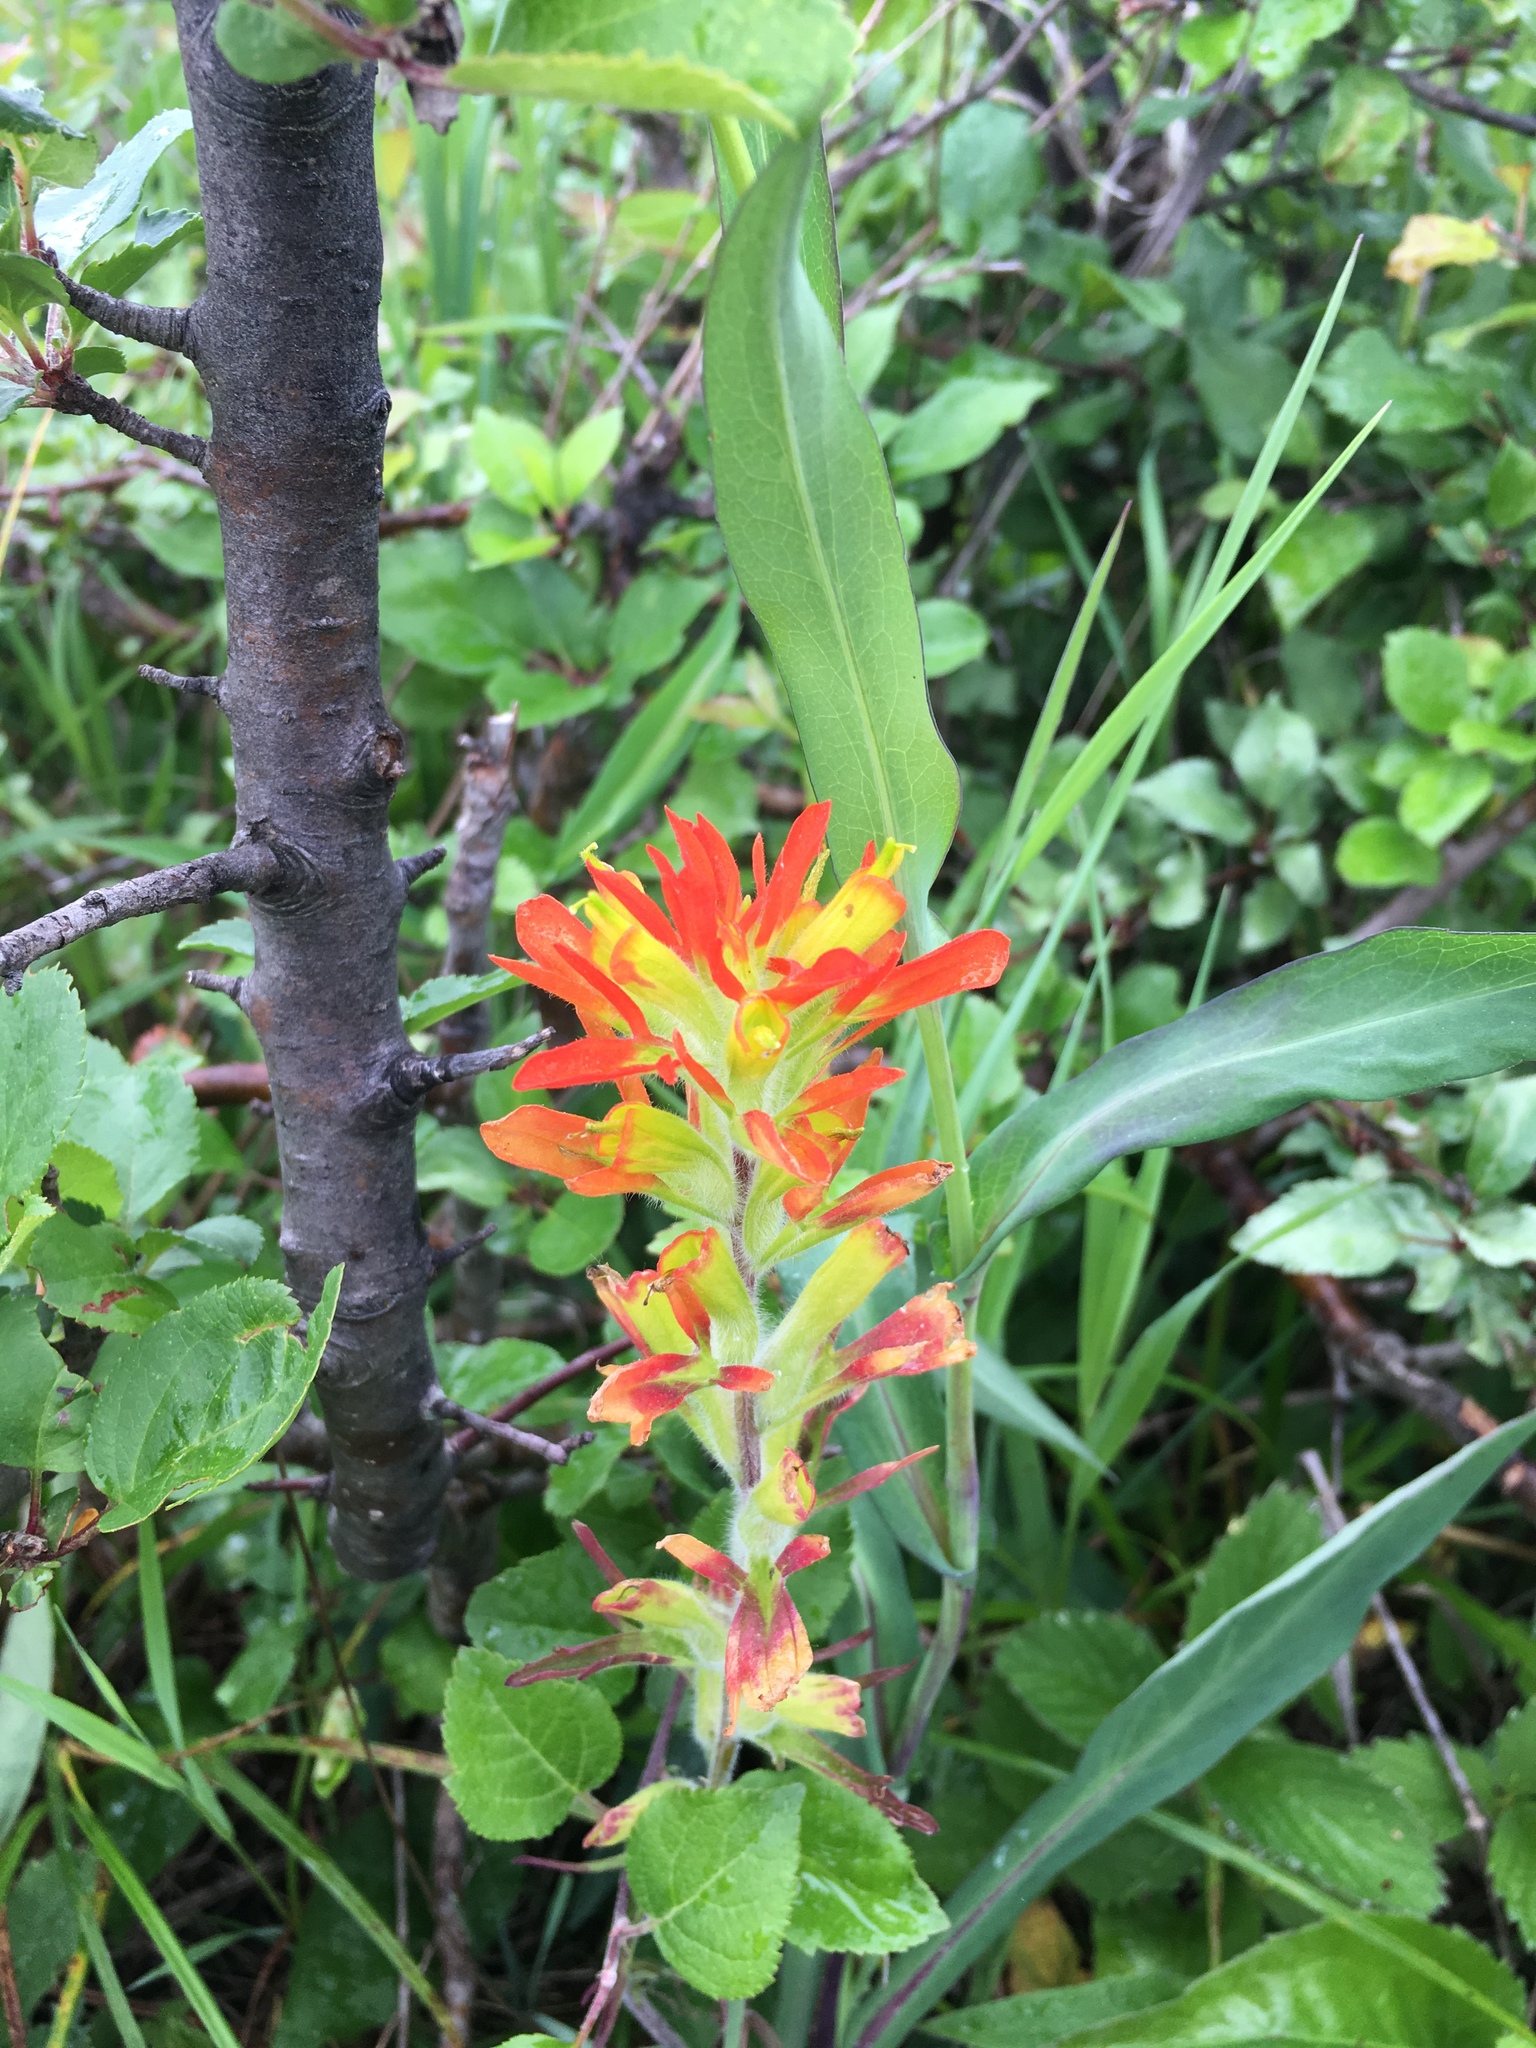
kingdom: Plantae
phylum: Tracheophyta
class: Magnoliopsida
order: Lamiales
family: Orobanchaceae
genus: Castilleja
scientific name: Castilleja coccinea
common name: Scarlet paintbrush
